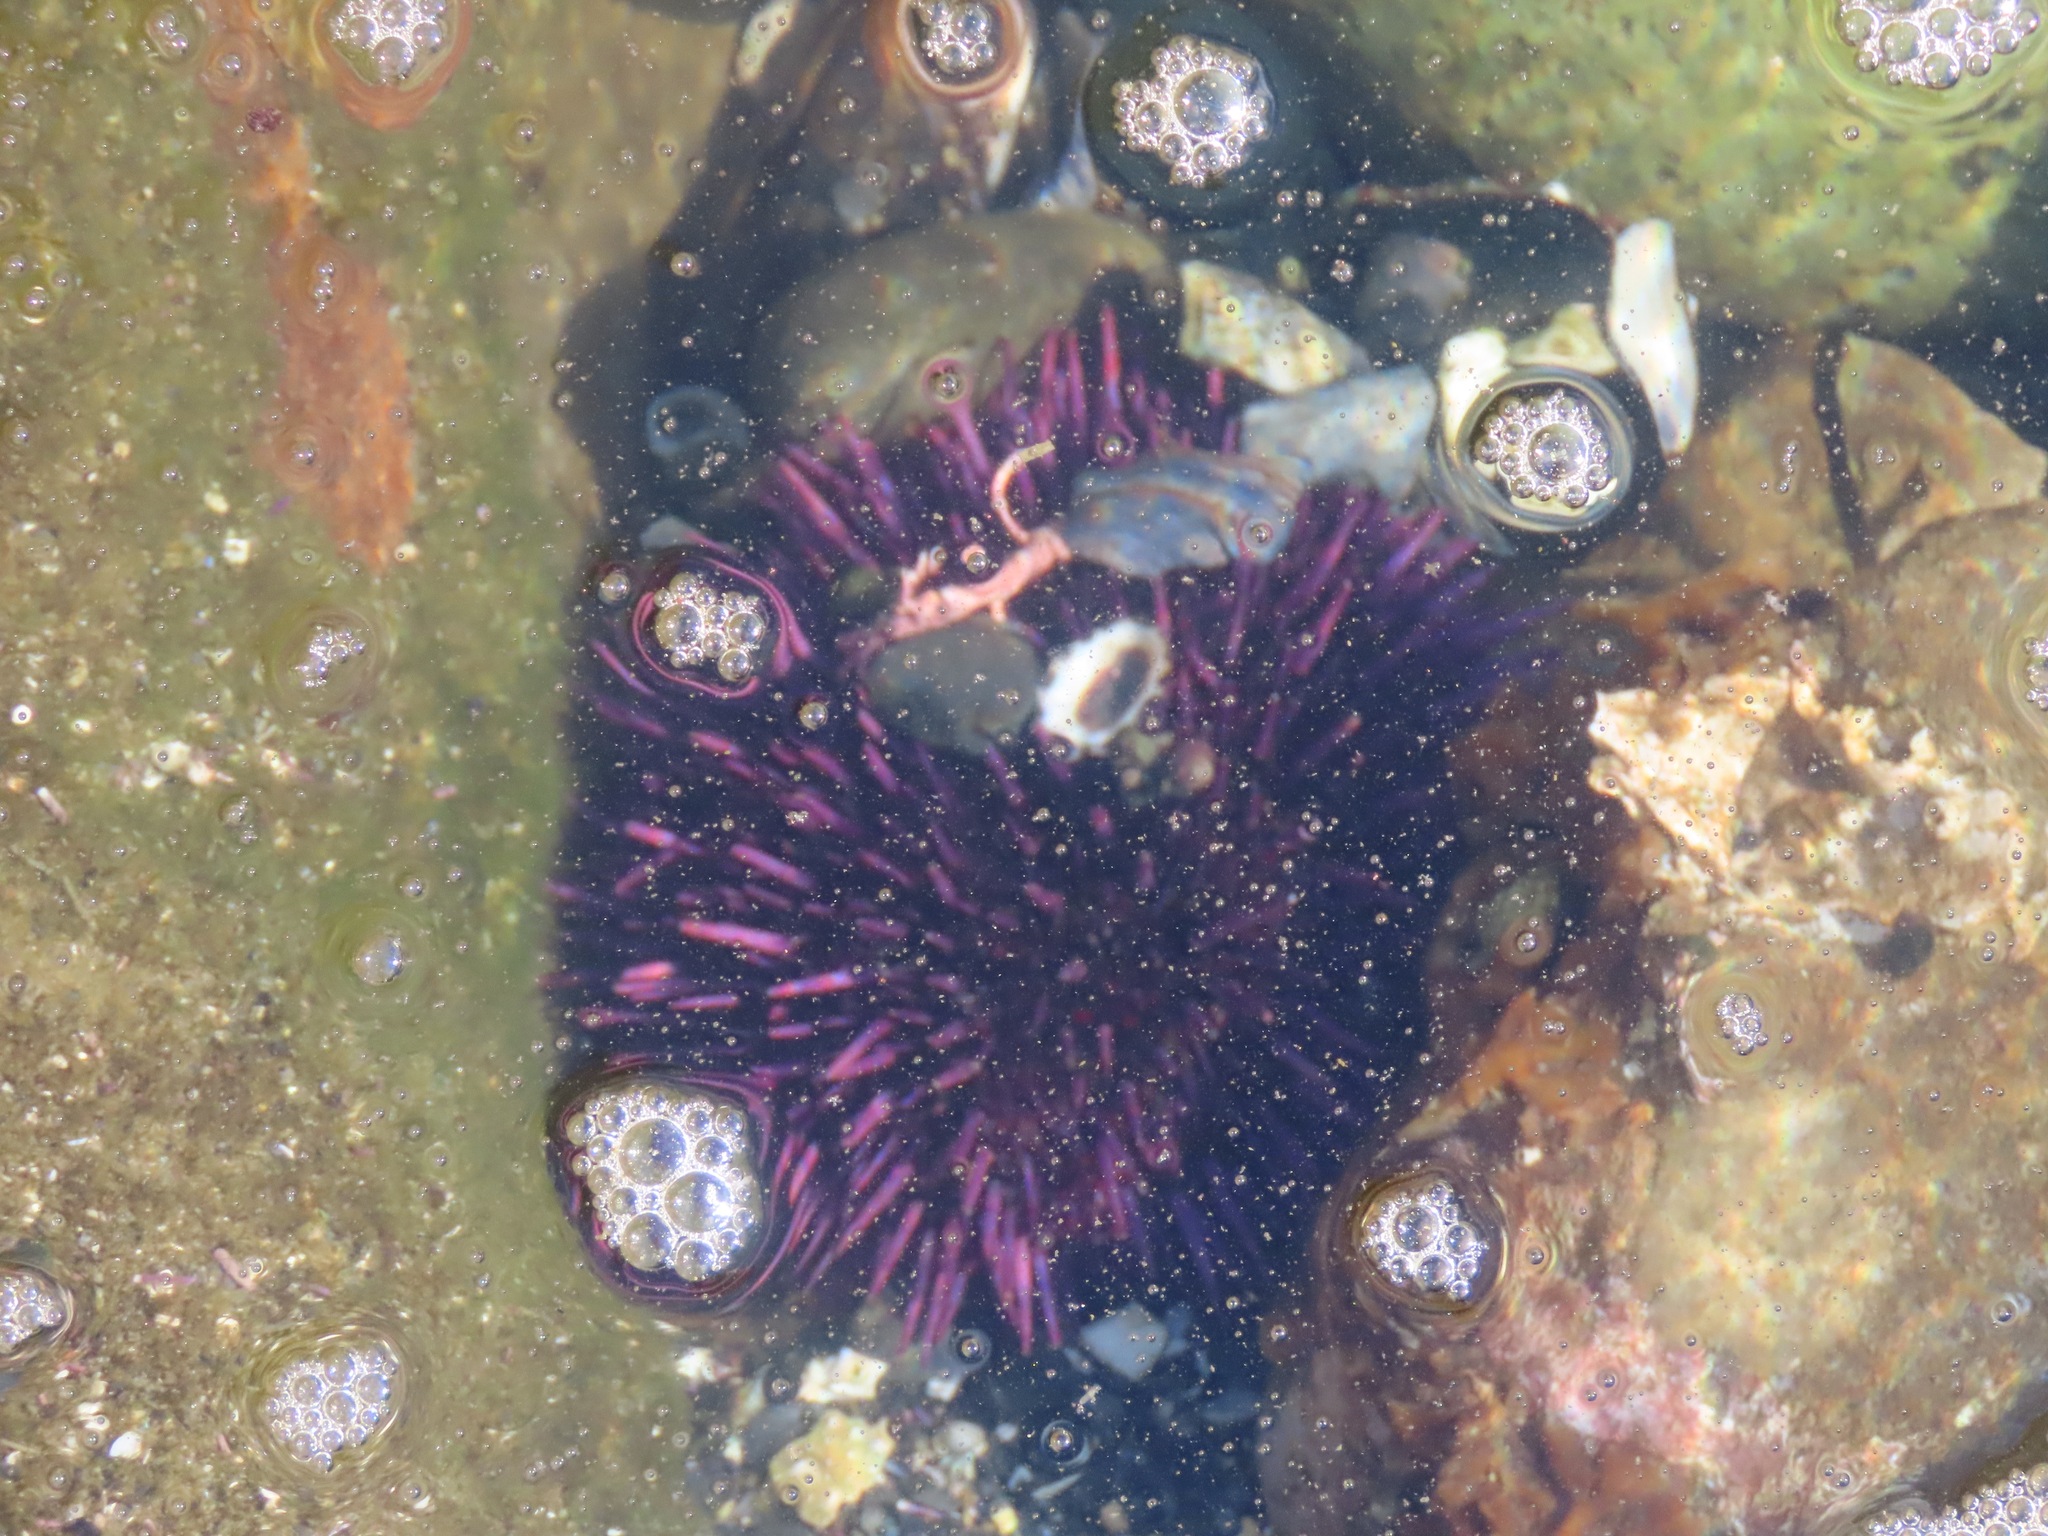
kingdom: Animalia
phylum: Echinodermata
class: Echinoidea
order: Camarodonta
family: Strongylocentrotidae
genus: Strongylocentrotus
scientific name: Strongylocentrotus purpuratus
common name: Purple sea urchin
